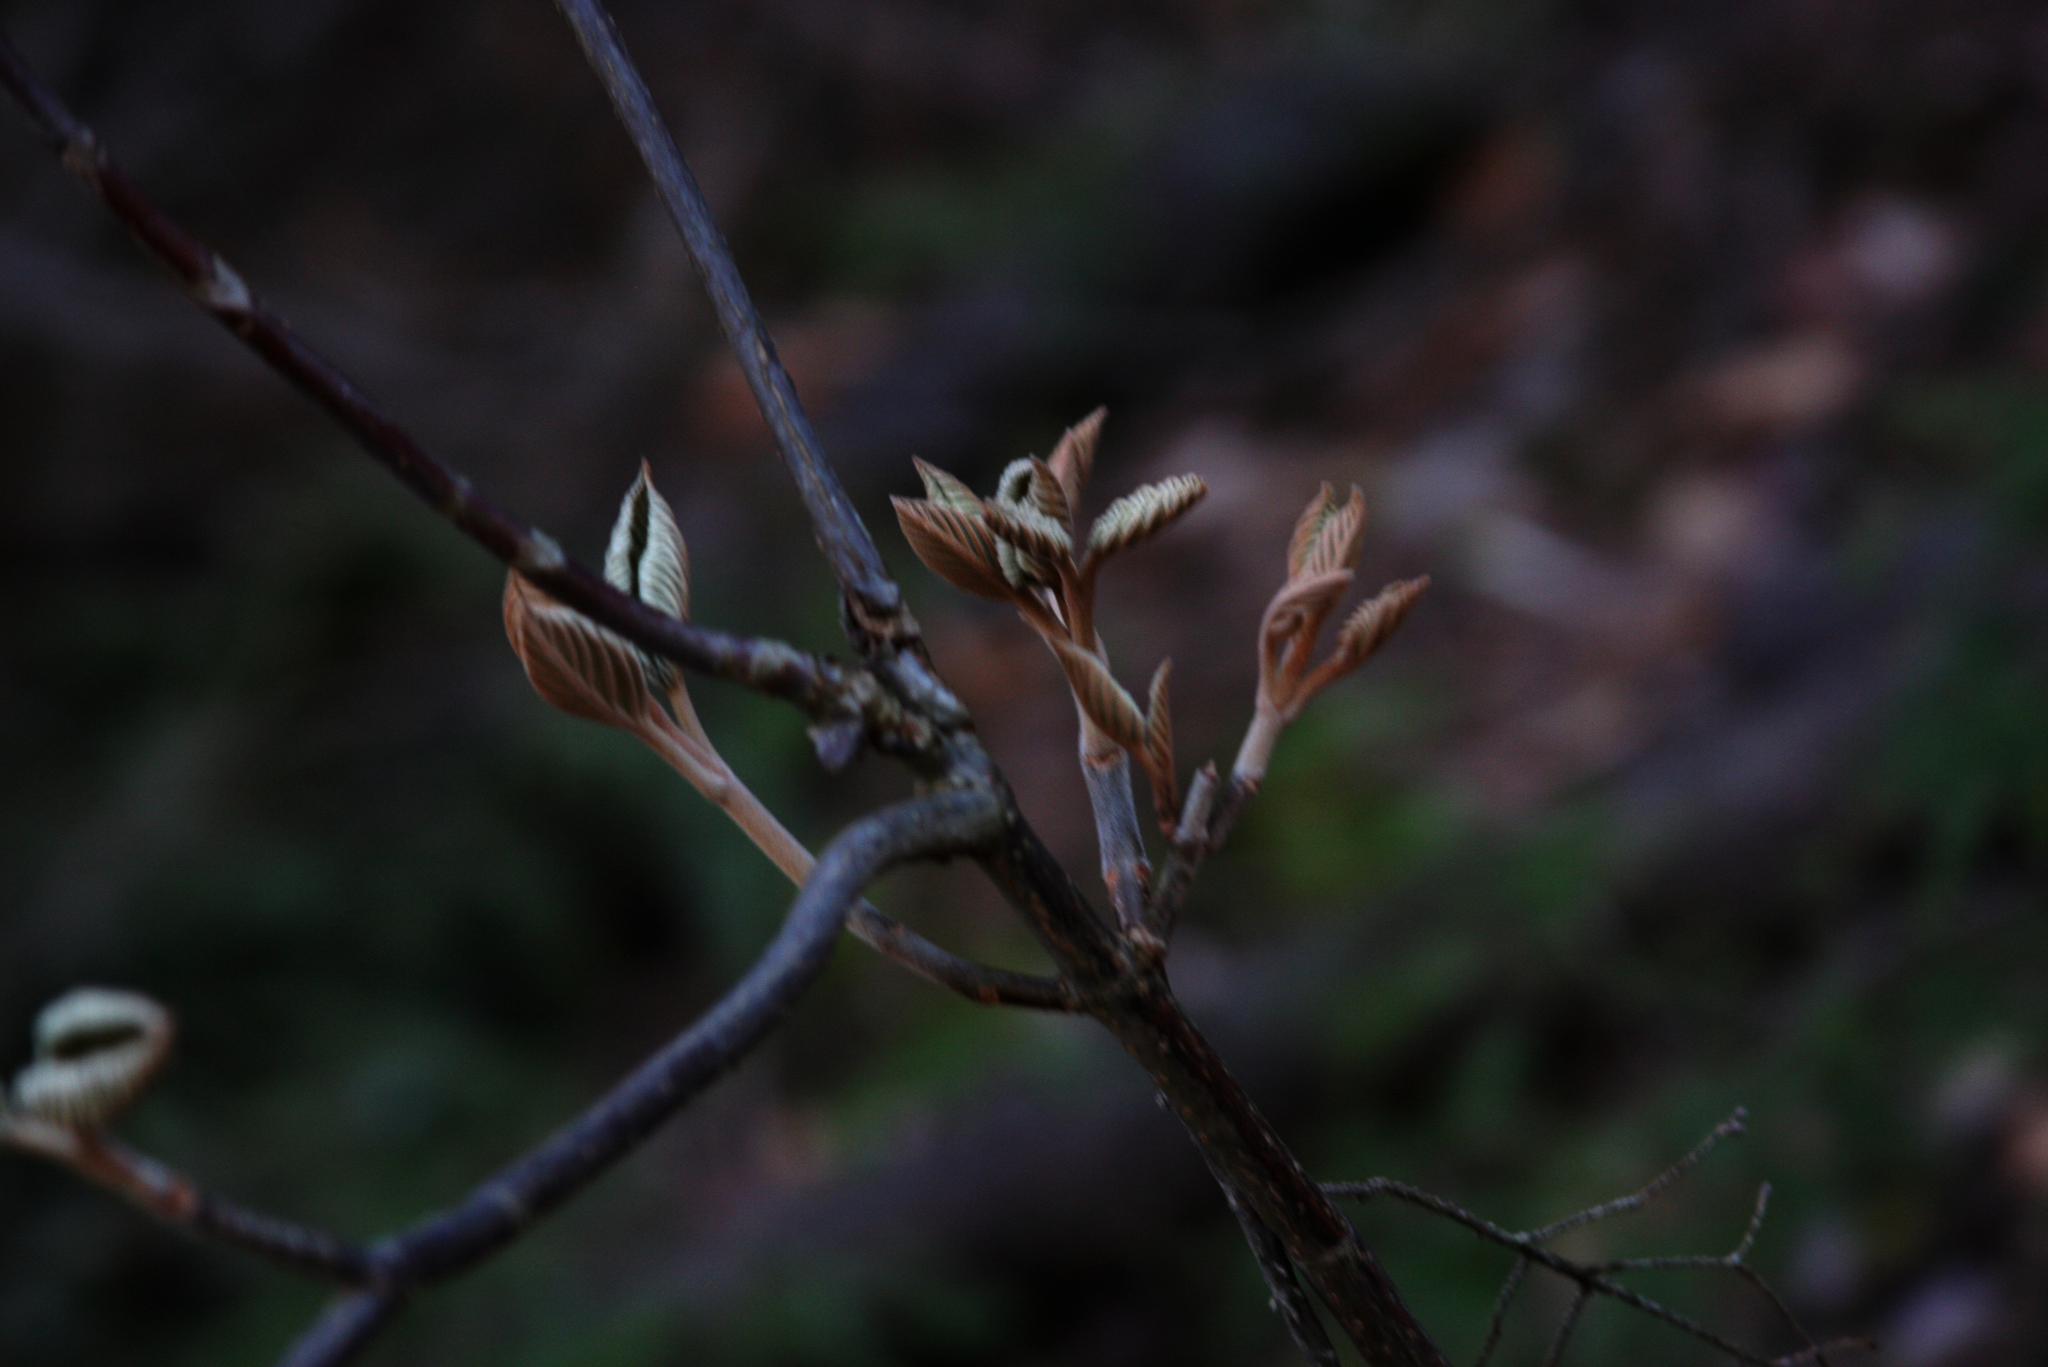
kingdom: Plantae
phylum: Tracheophyta
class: Magnoliopsida
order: Dipsacales
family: Viburnaceae
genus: Viburnum
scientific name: Viburnum lantanoides
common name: Hobblebush
